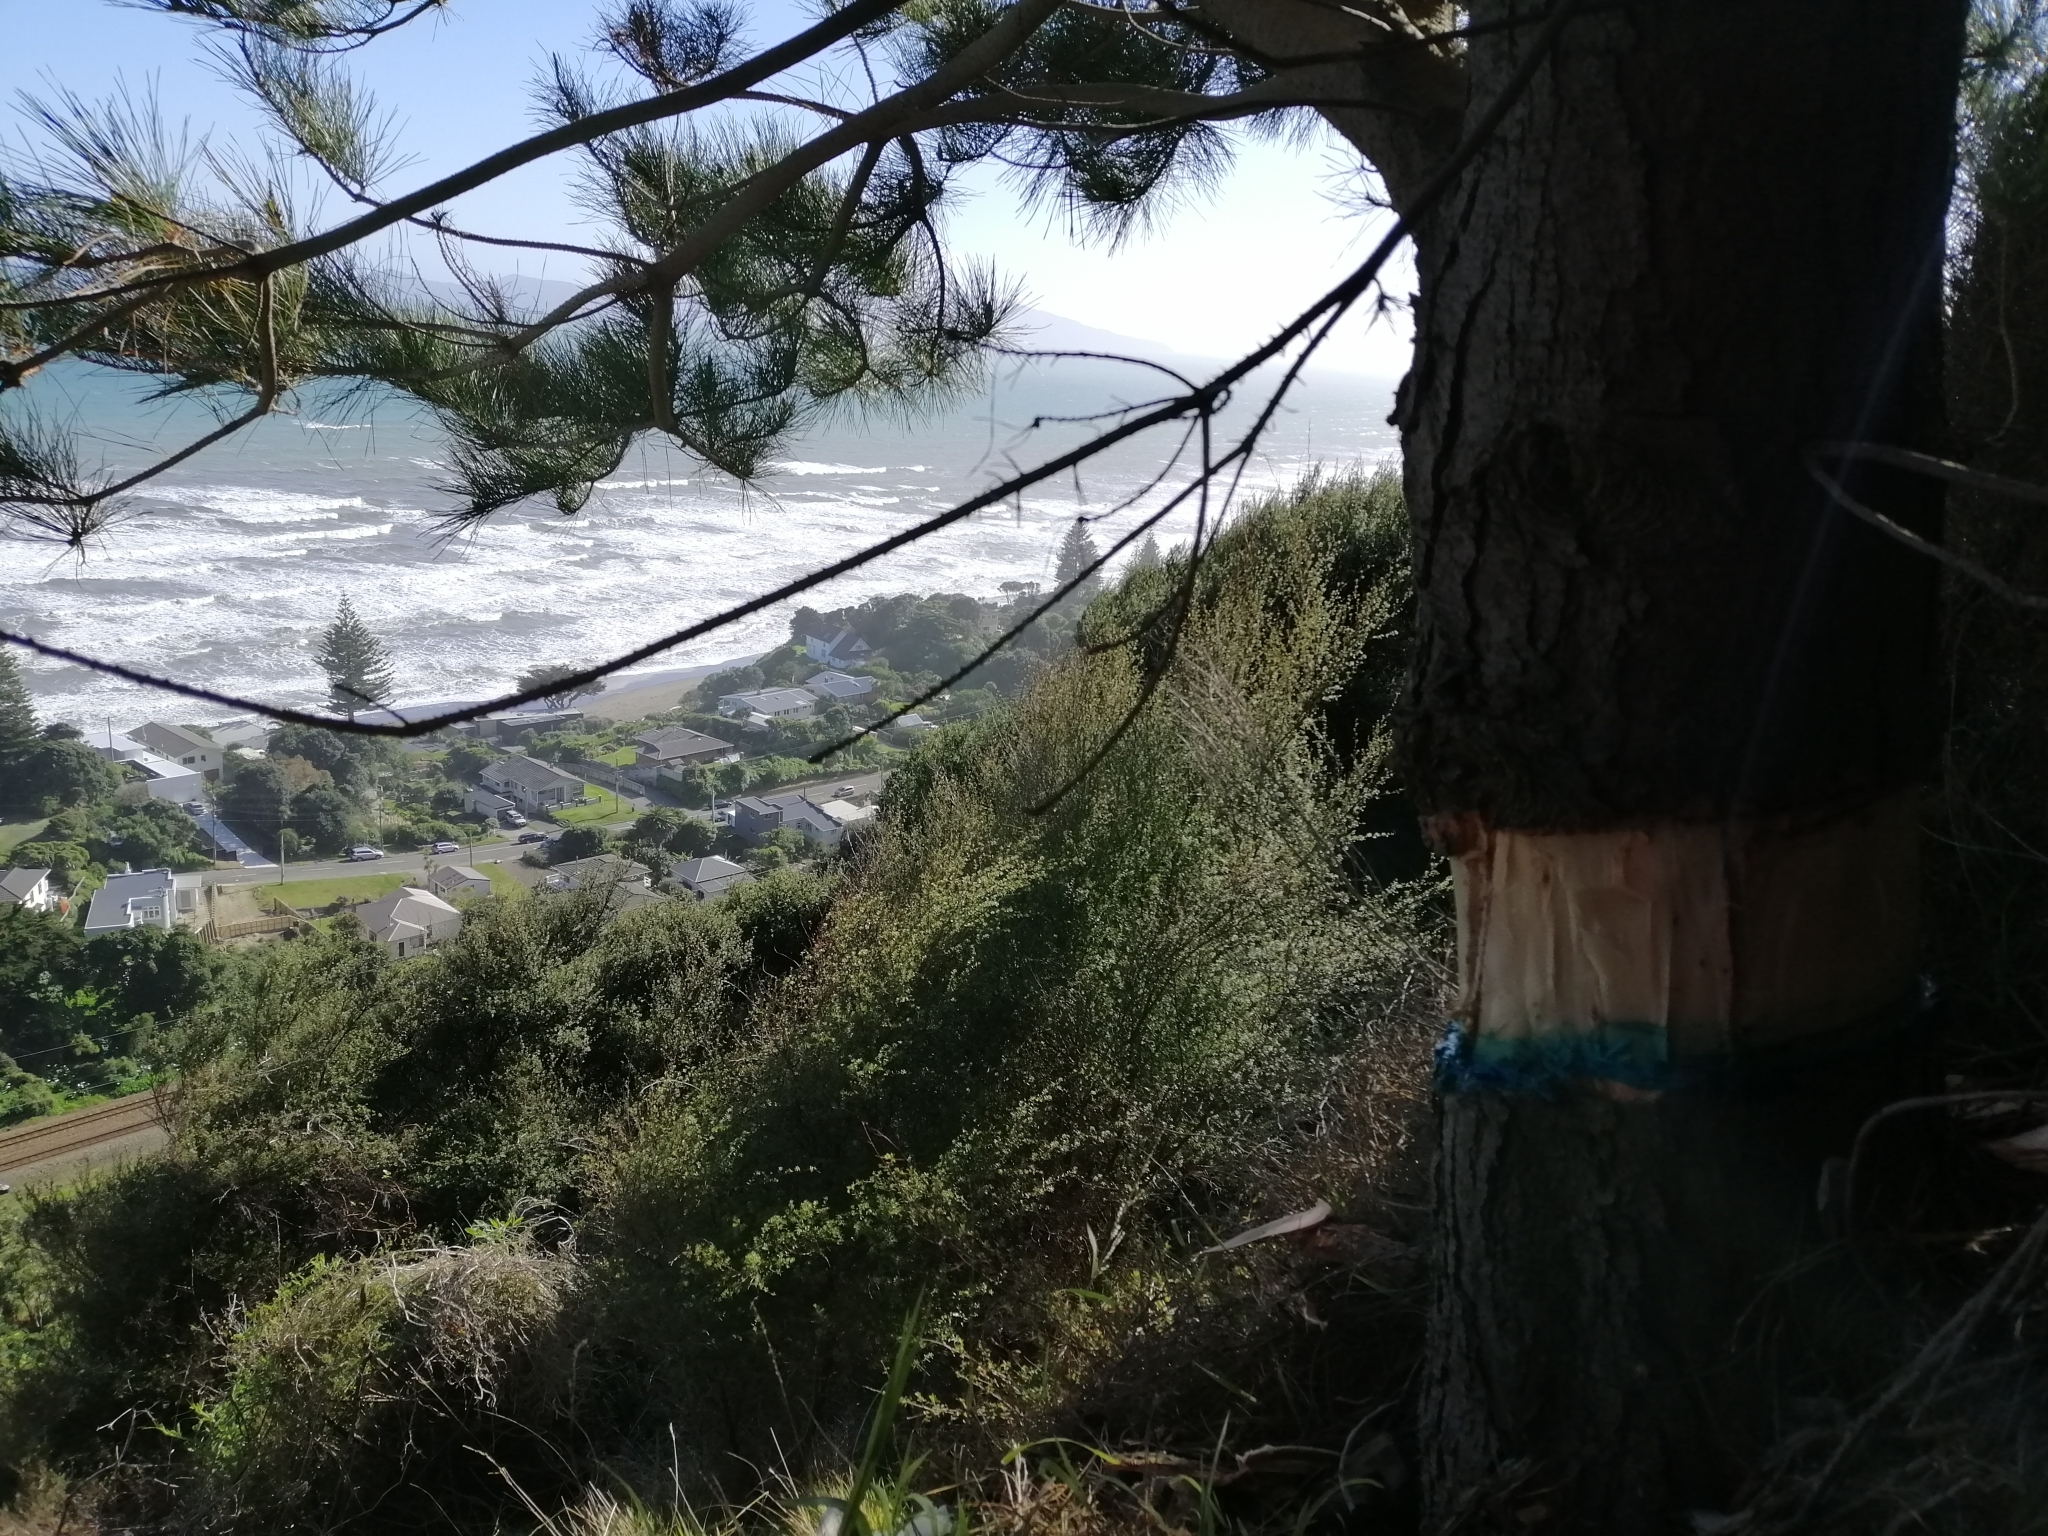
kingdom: Plantae
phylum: Tracheophyta
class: Pinopsida
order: Pinales
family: Pinaceae
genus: Pinus
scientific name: Pinus radiata
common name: Monterey pine
